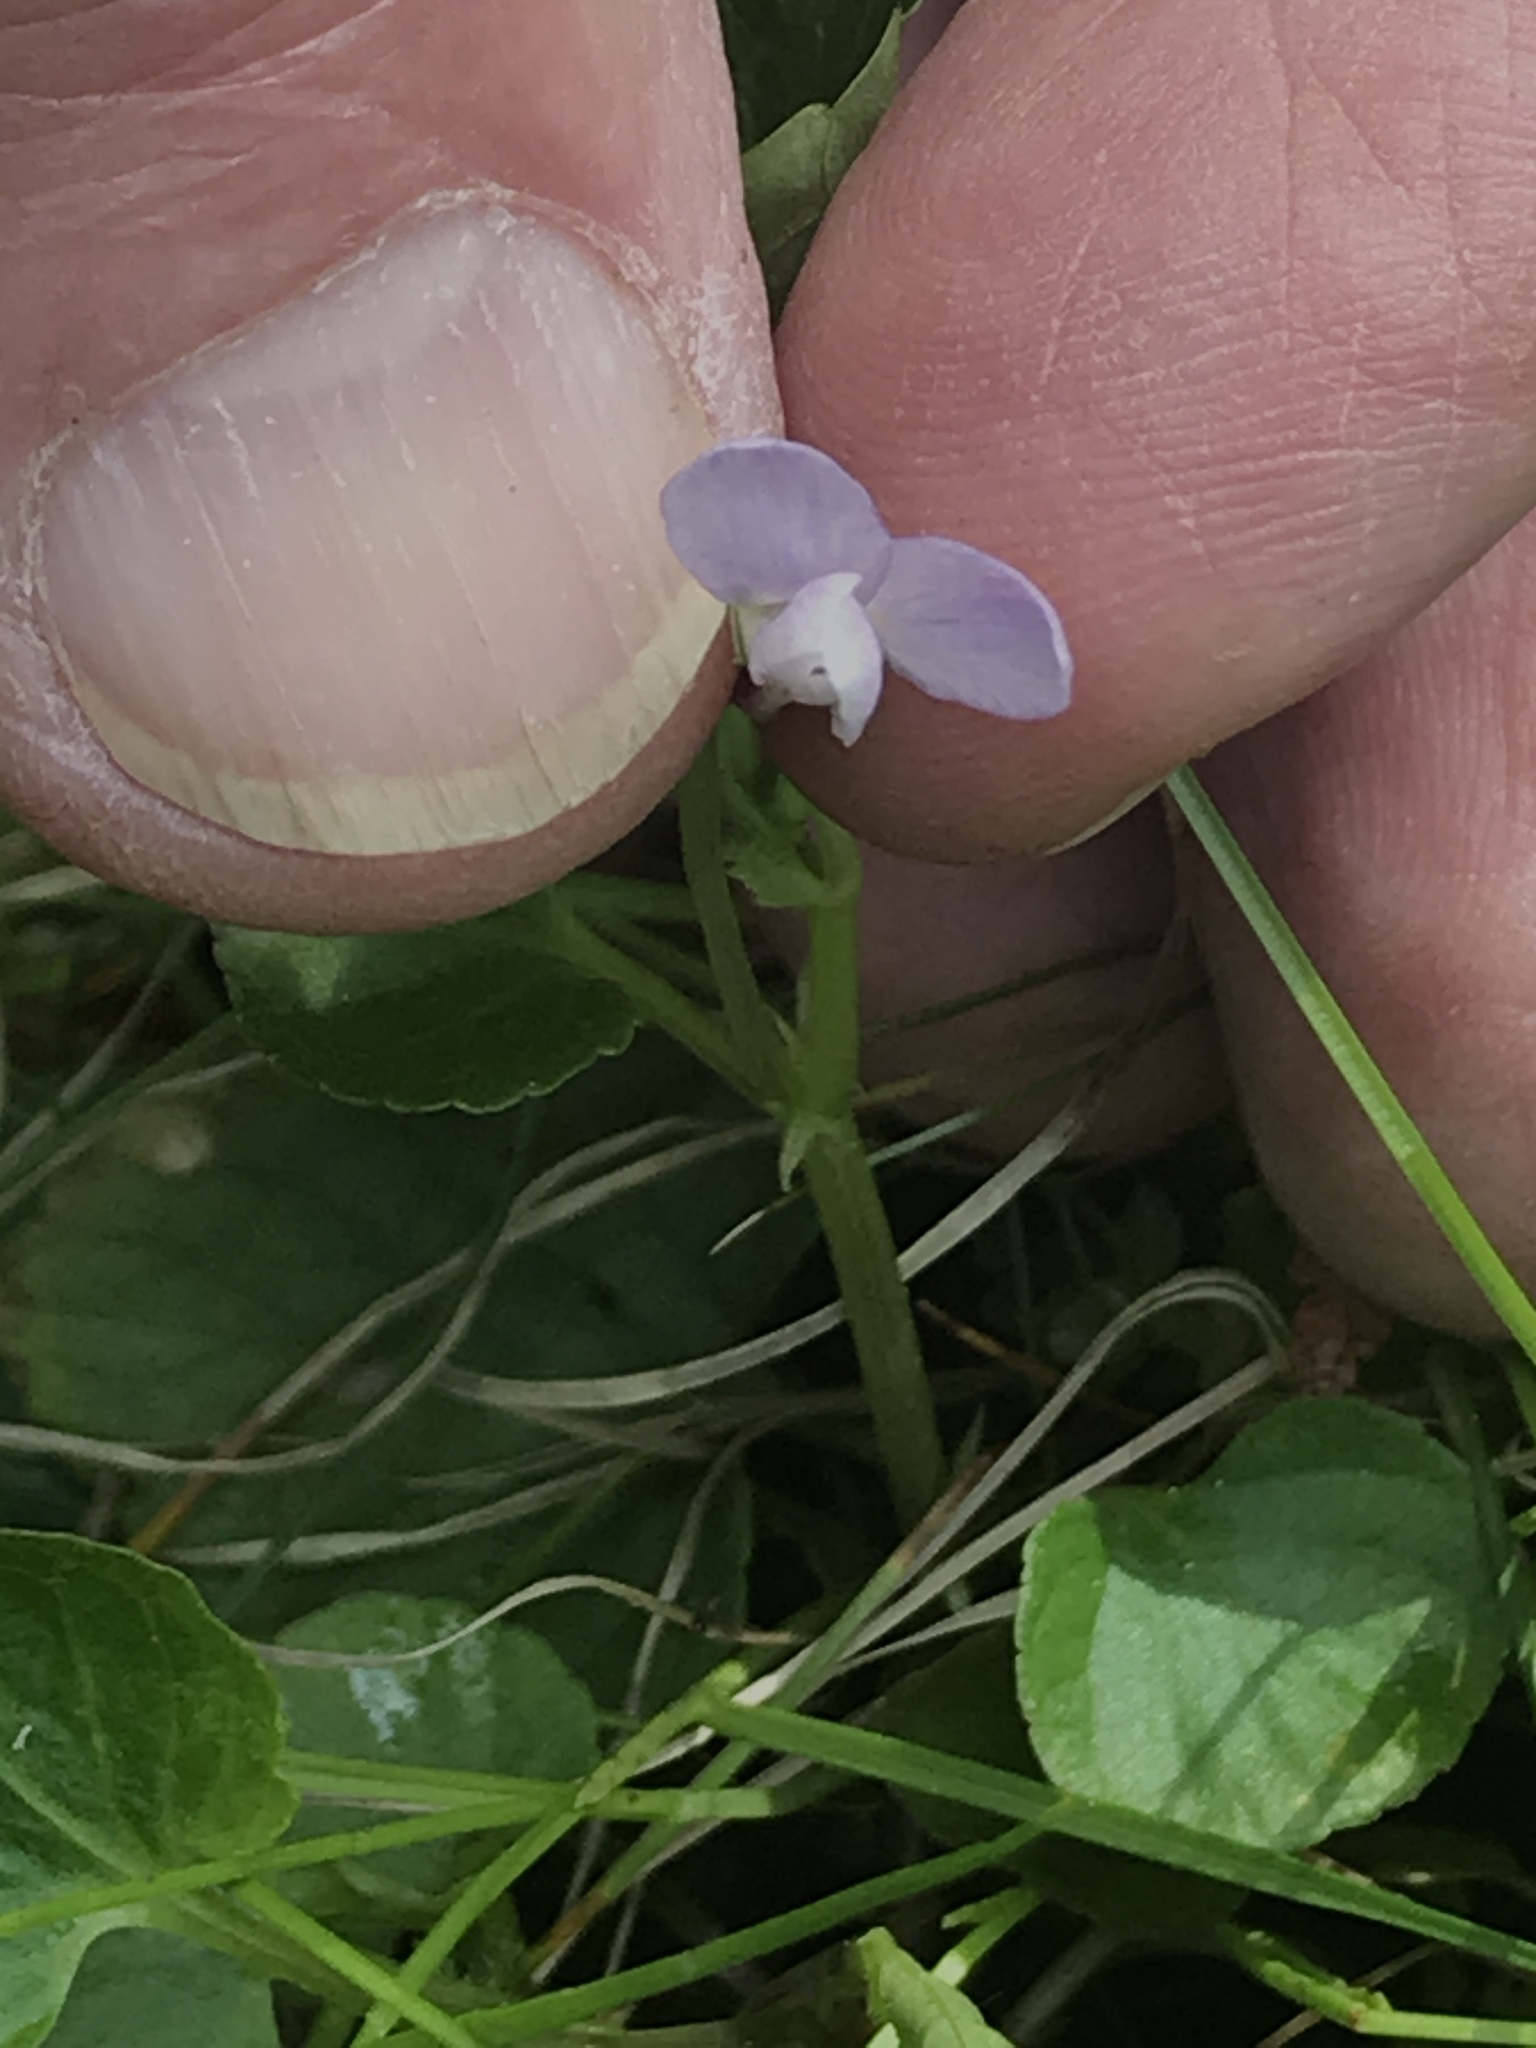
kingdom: Plantae
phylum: Tracheophyta
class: Magnoliopsida
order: Malpighiales
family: Violaceae
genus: Viola
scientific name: Viola labradorica
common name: Labrador violet
